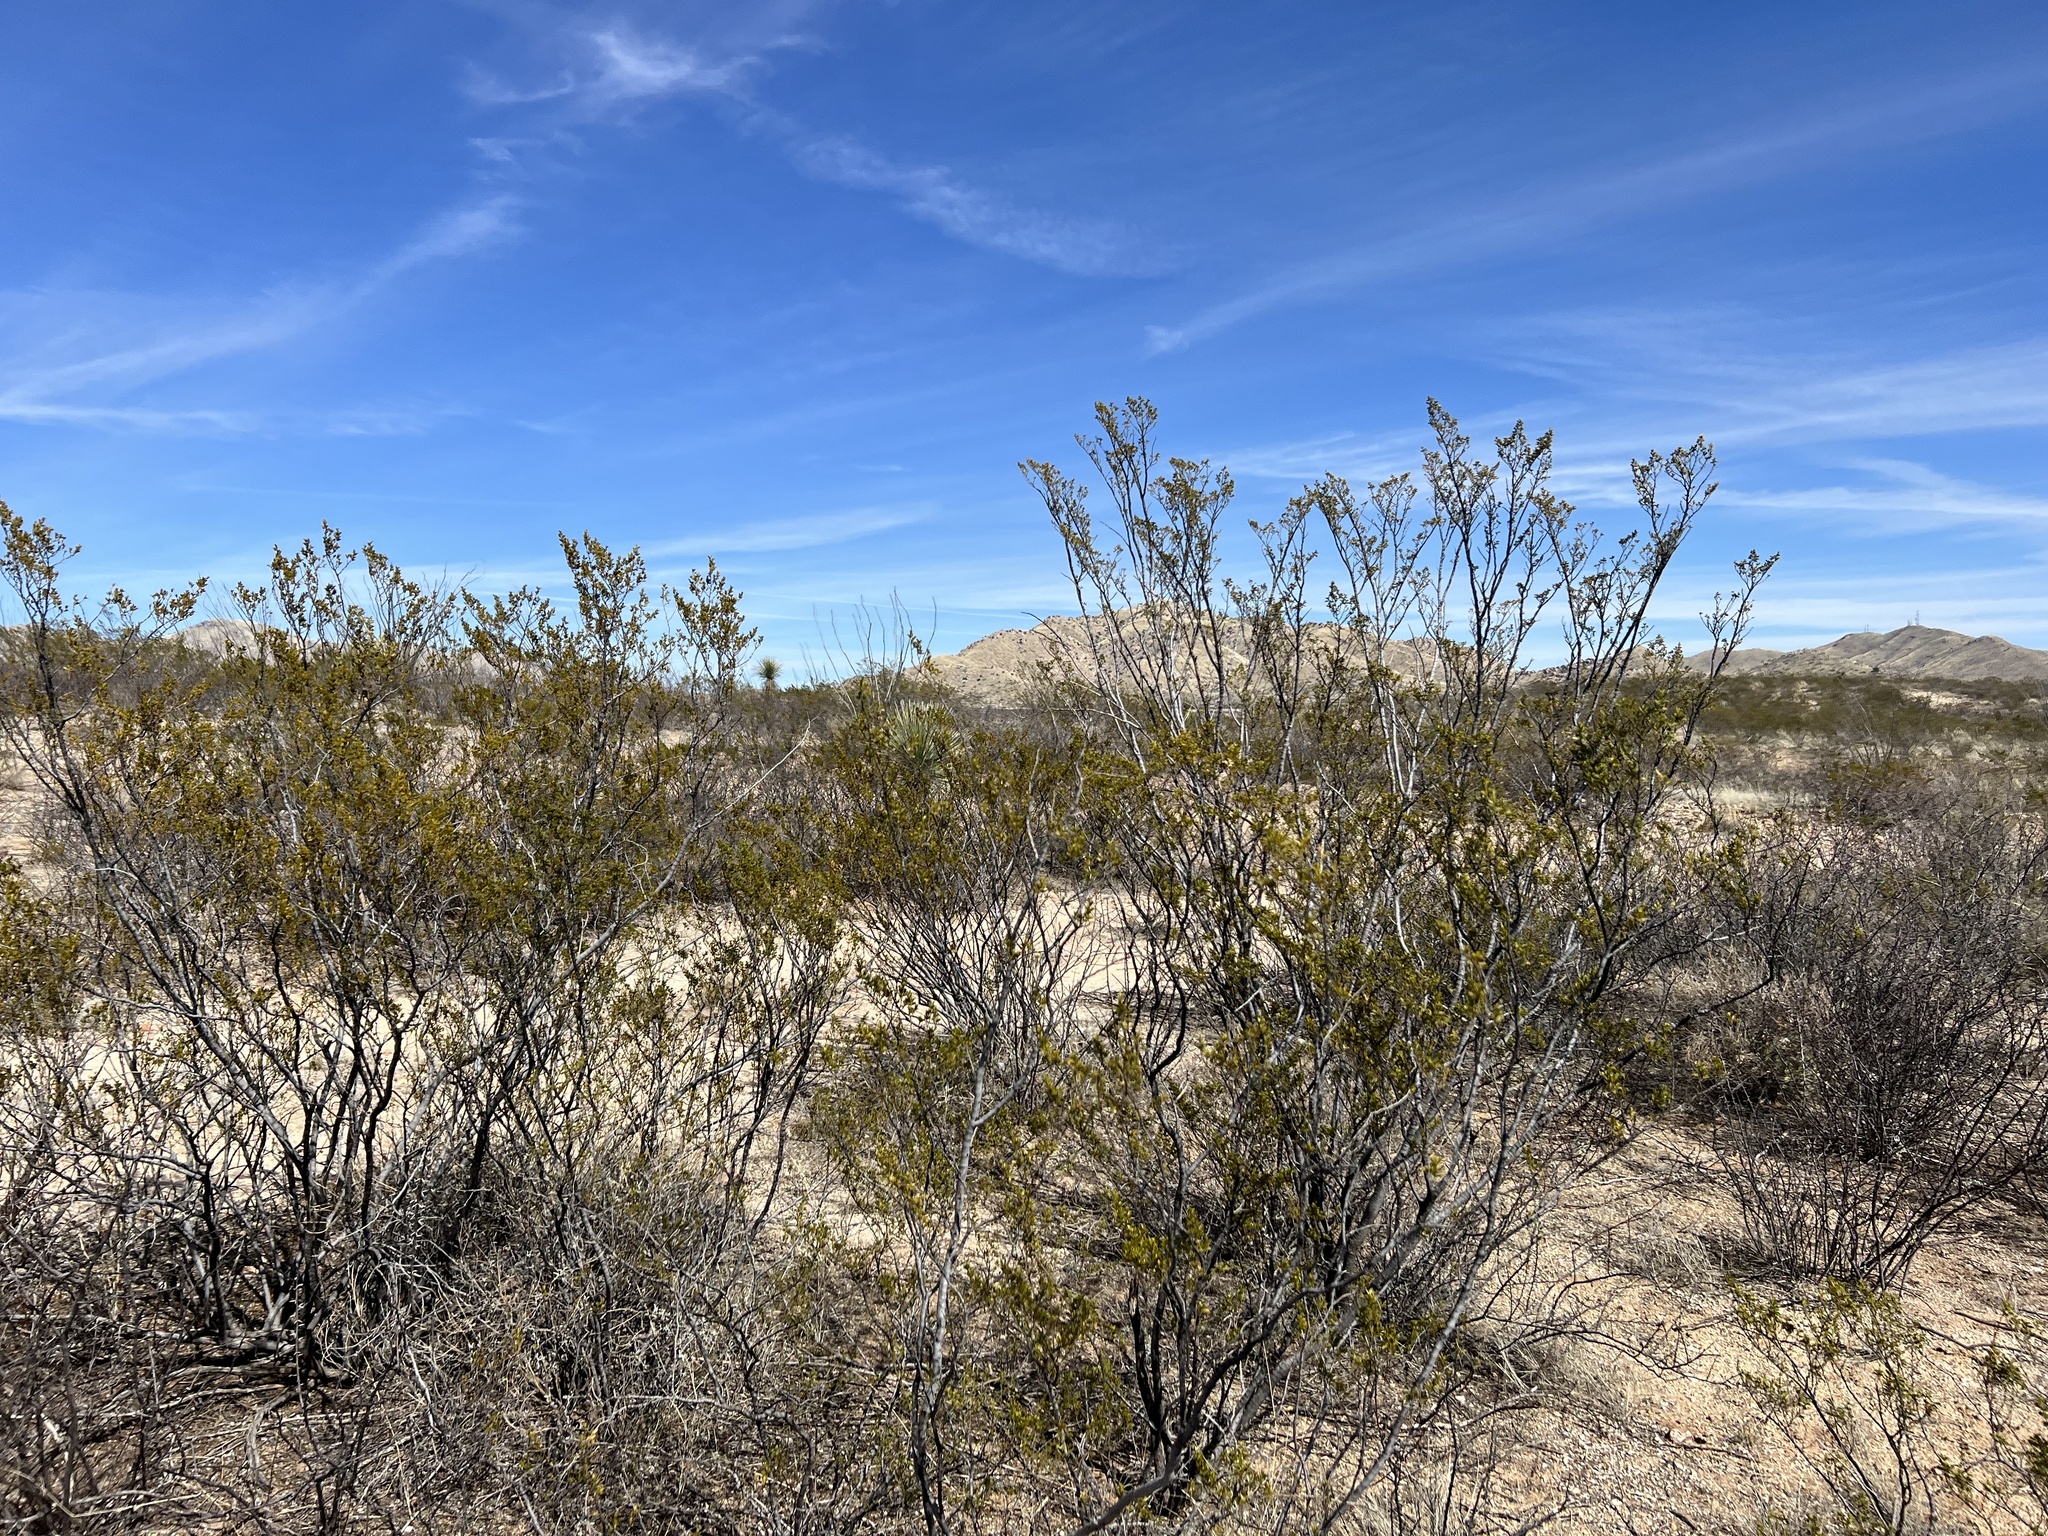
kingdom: Plantae
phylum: Tracheophyta
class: Magnoliopsida
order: Zygophyllales
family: Zygophyllaceae
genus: Larrea
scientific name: Larrea tridentata
